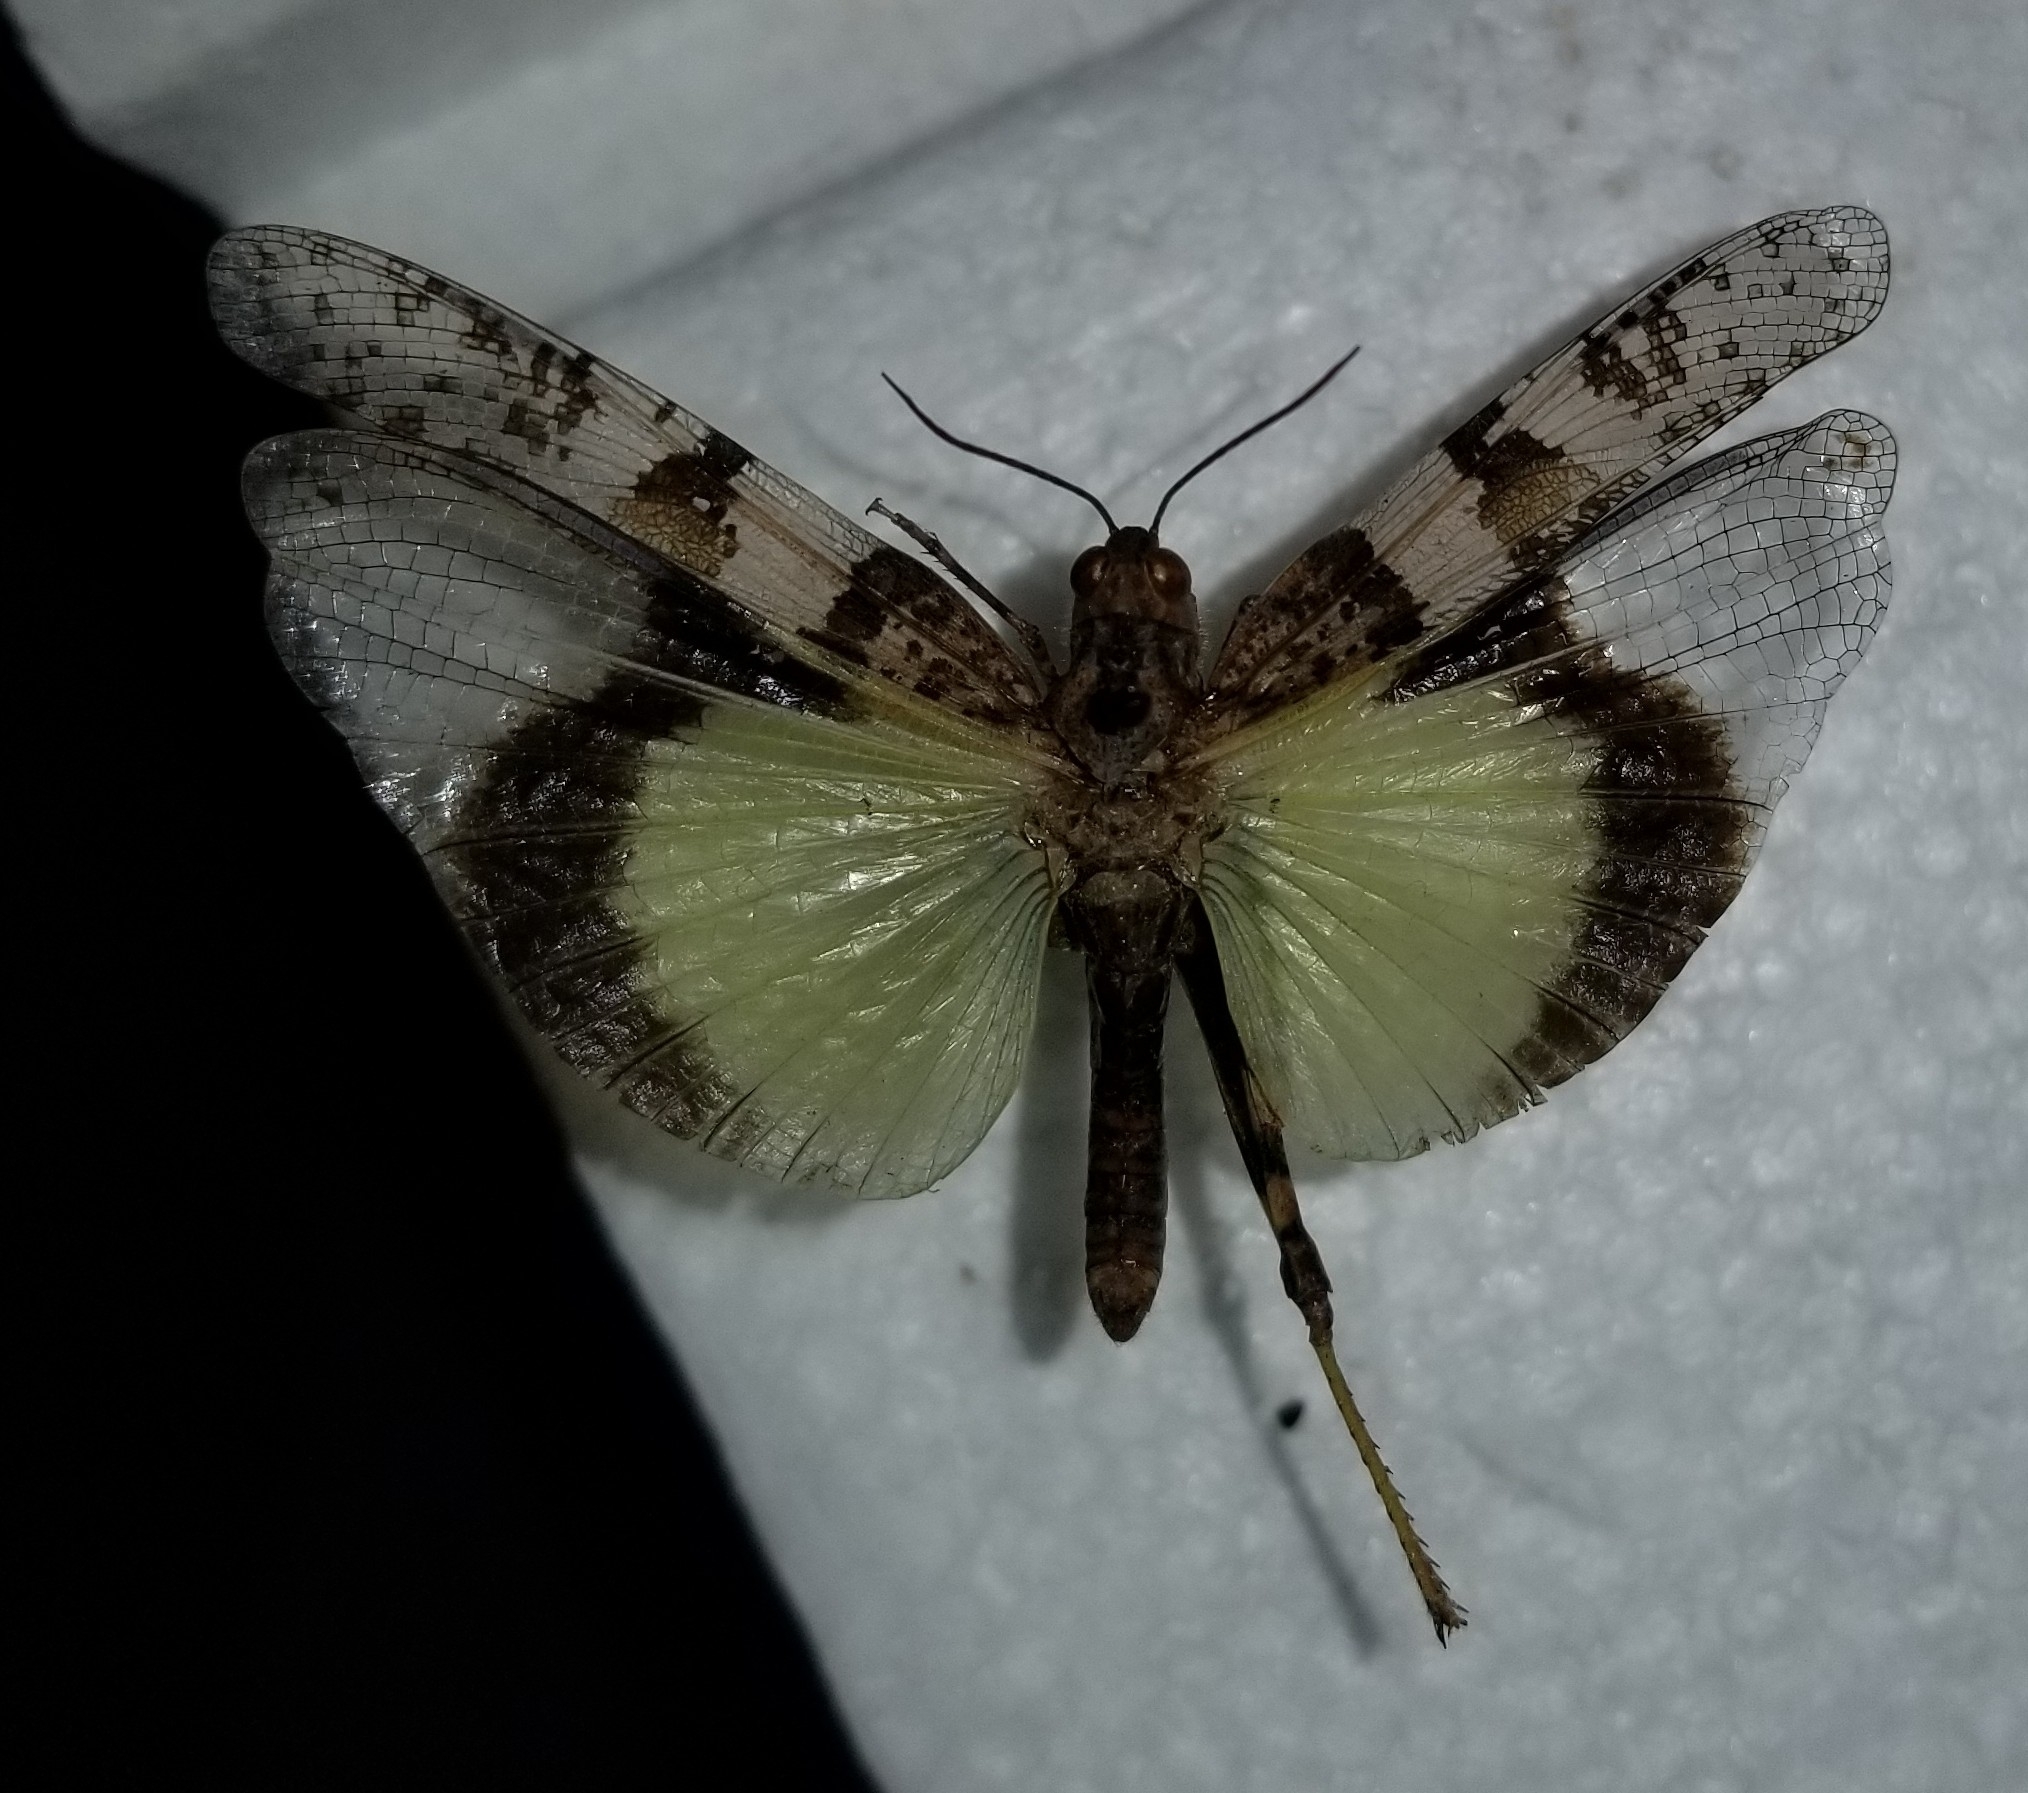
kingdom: Animalia
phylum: Arthropoda
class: Insecta
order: Orthoptera
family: Acrididae
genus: Trimerotropis
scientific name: Trimerotropis pallidipennis
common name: Pallid-winged grasshopper
